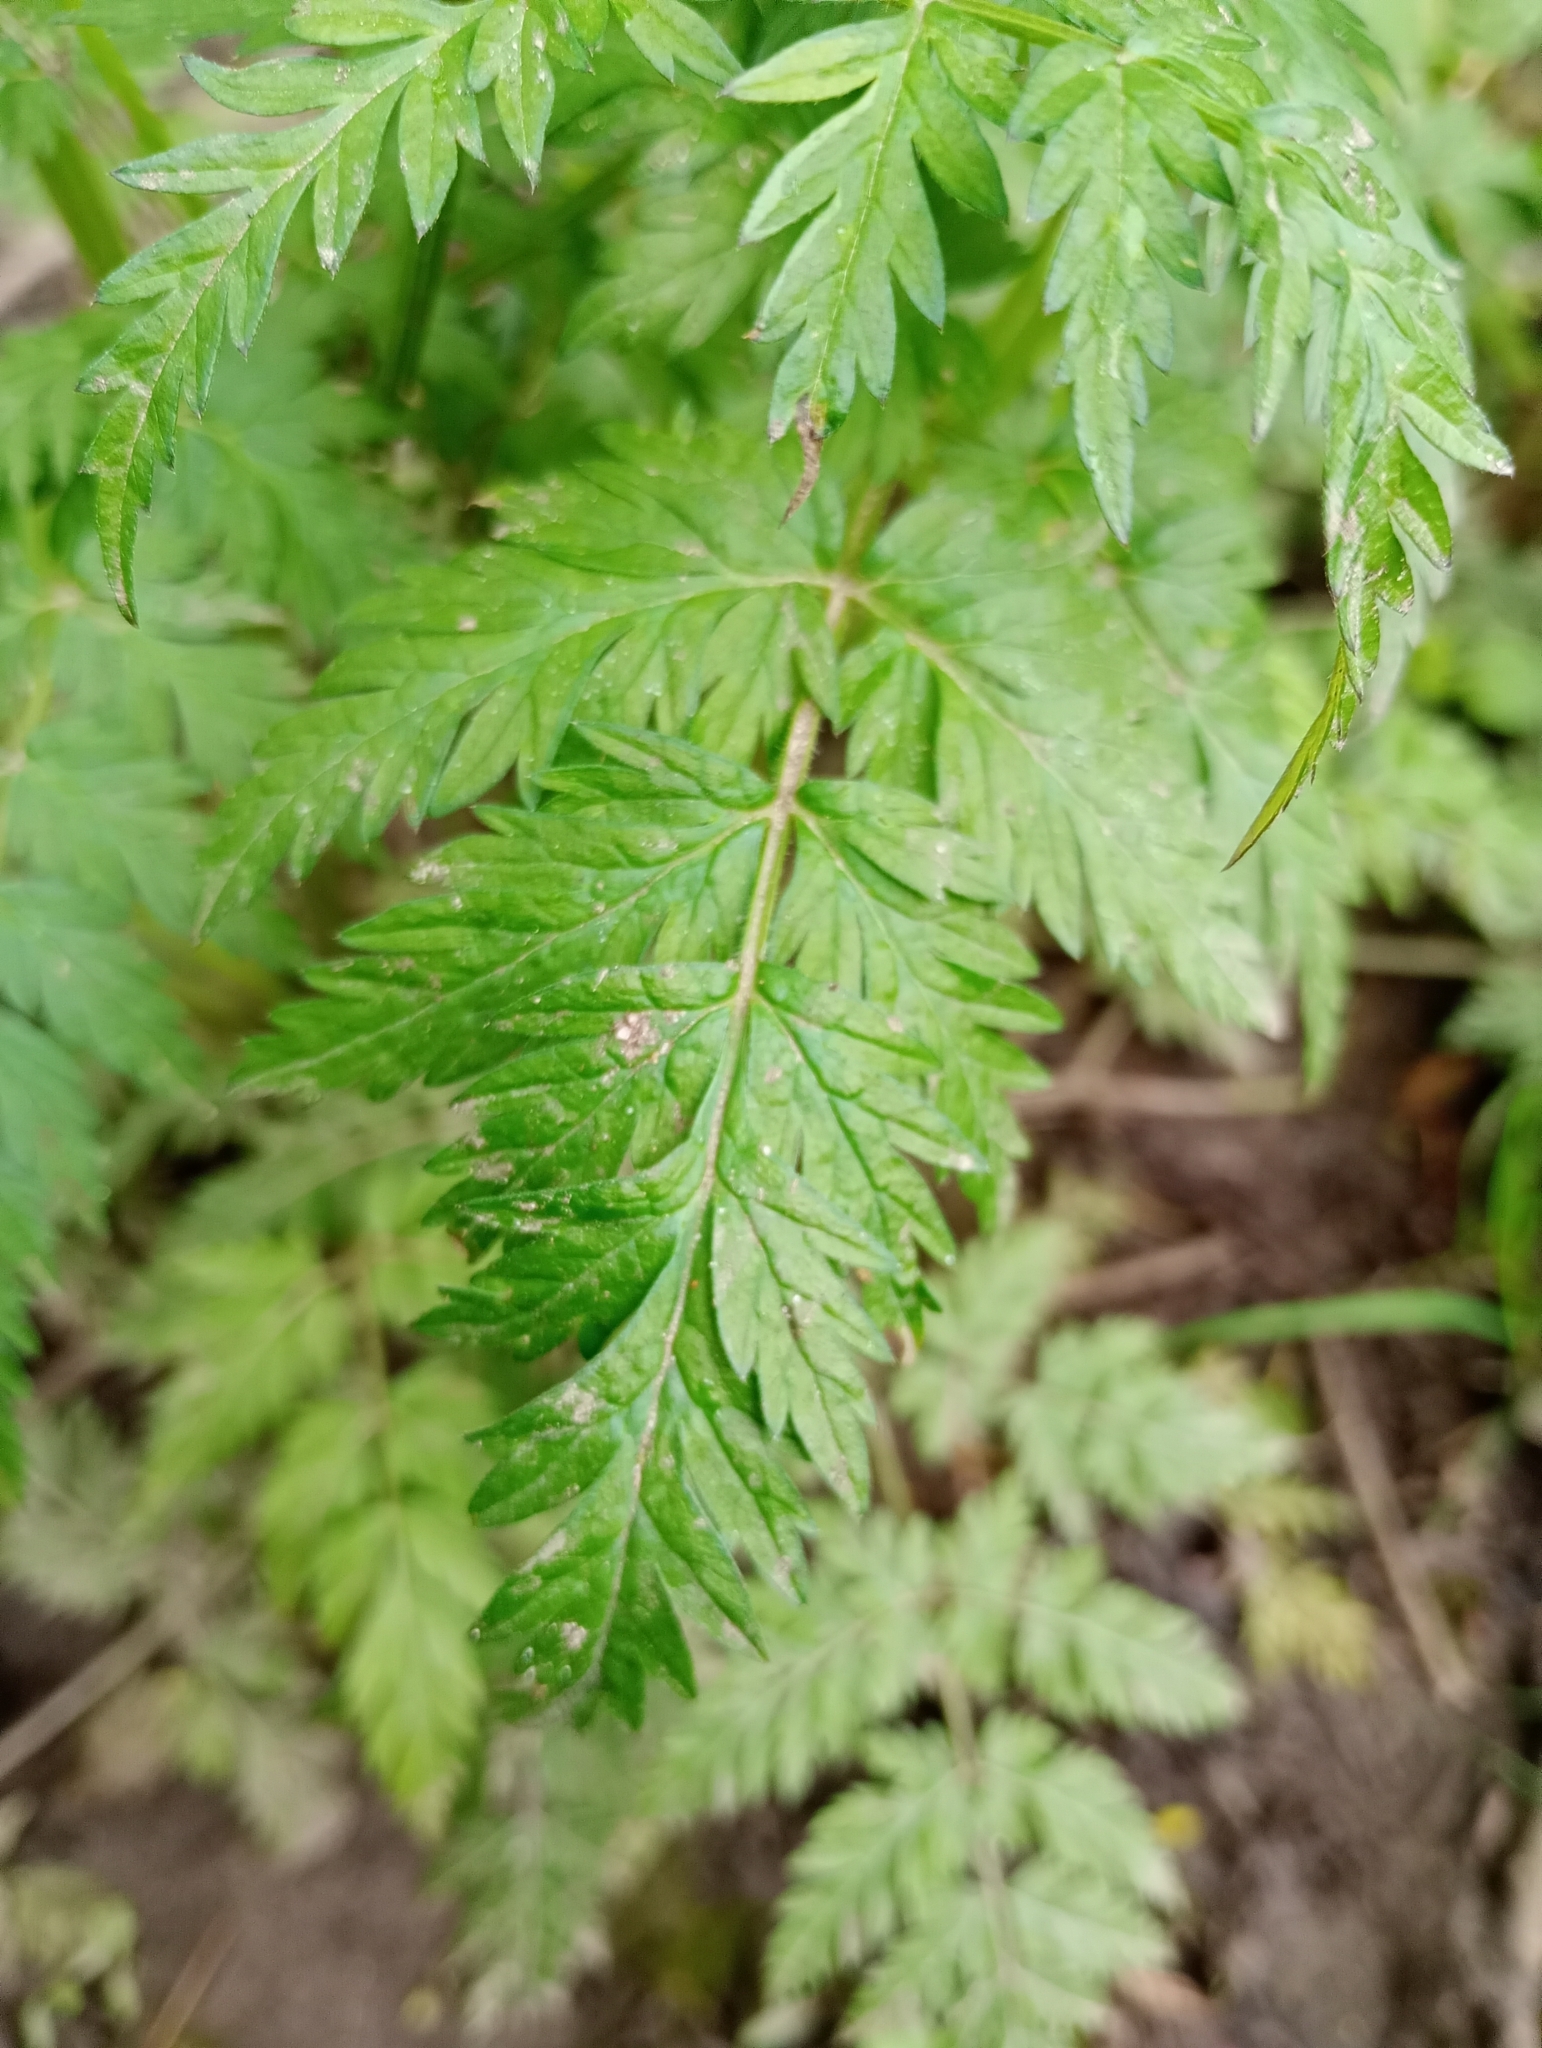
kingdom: Plantae
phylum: Tracheophyta
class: Magnoliopsida
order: Apiales
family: Apiaceae
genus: Anthriscus
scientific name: Anthriscus sylvestris
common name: Cow parsley
